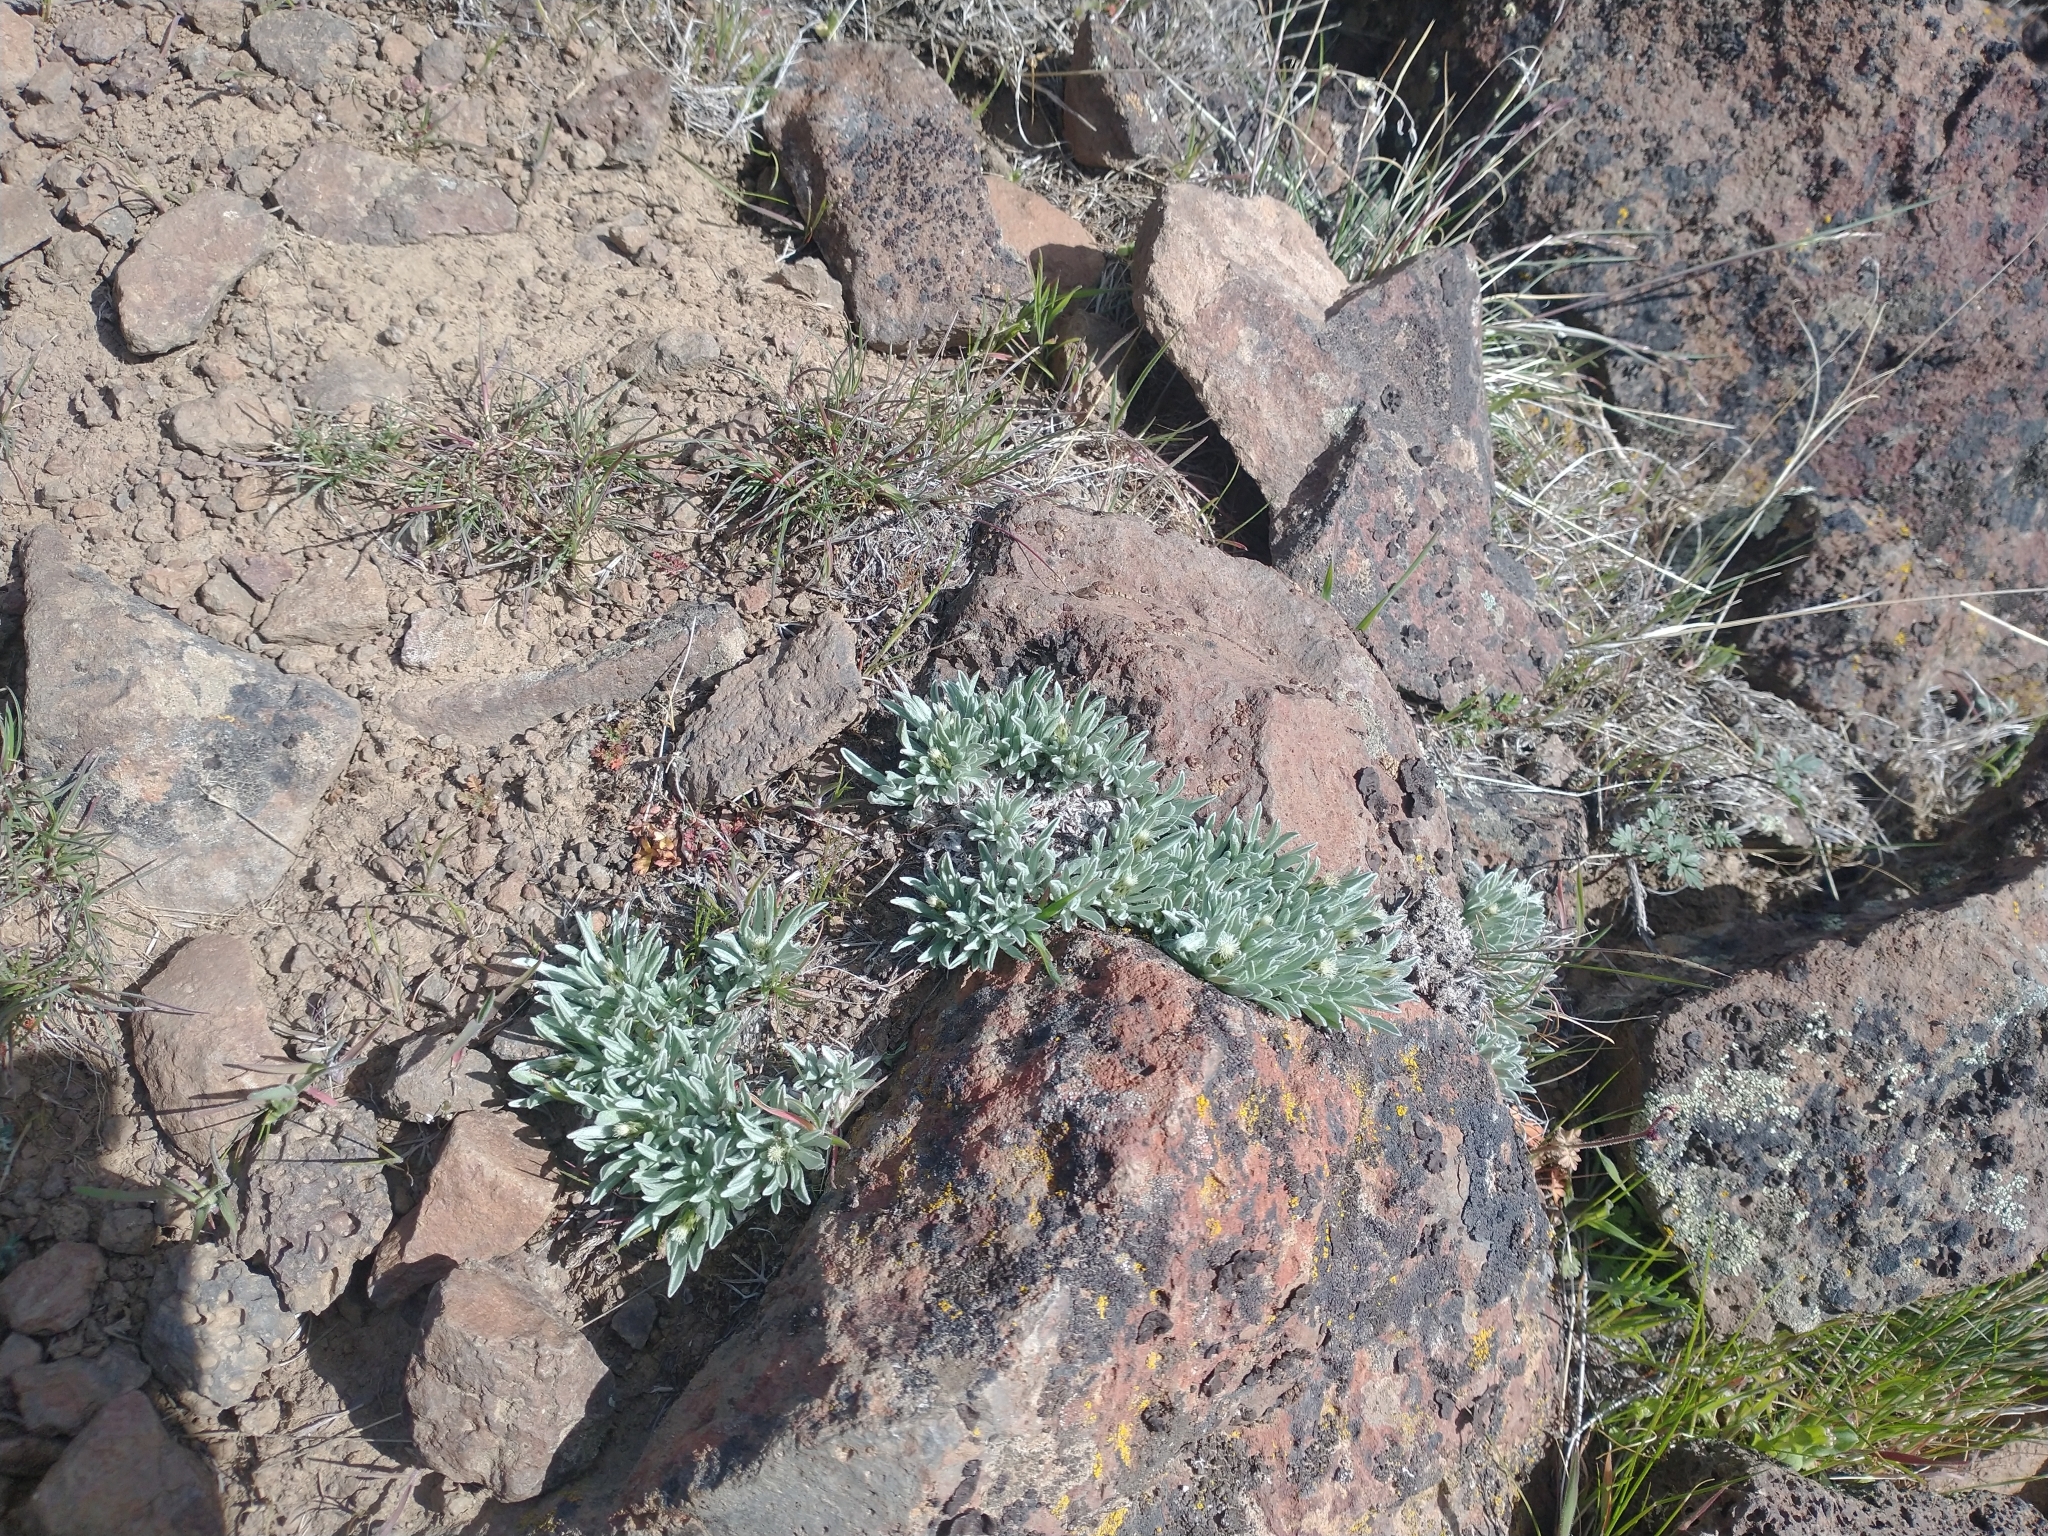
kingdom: Plantae
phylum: Tracheophyta
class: Magnoliopsida
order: Asterales
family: Asteraceae
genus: Antennaria
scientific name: Antennaria dimorpha
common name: Cushion pussytoes
